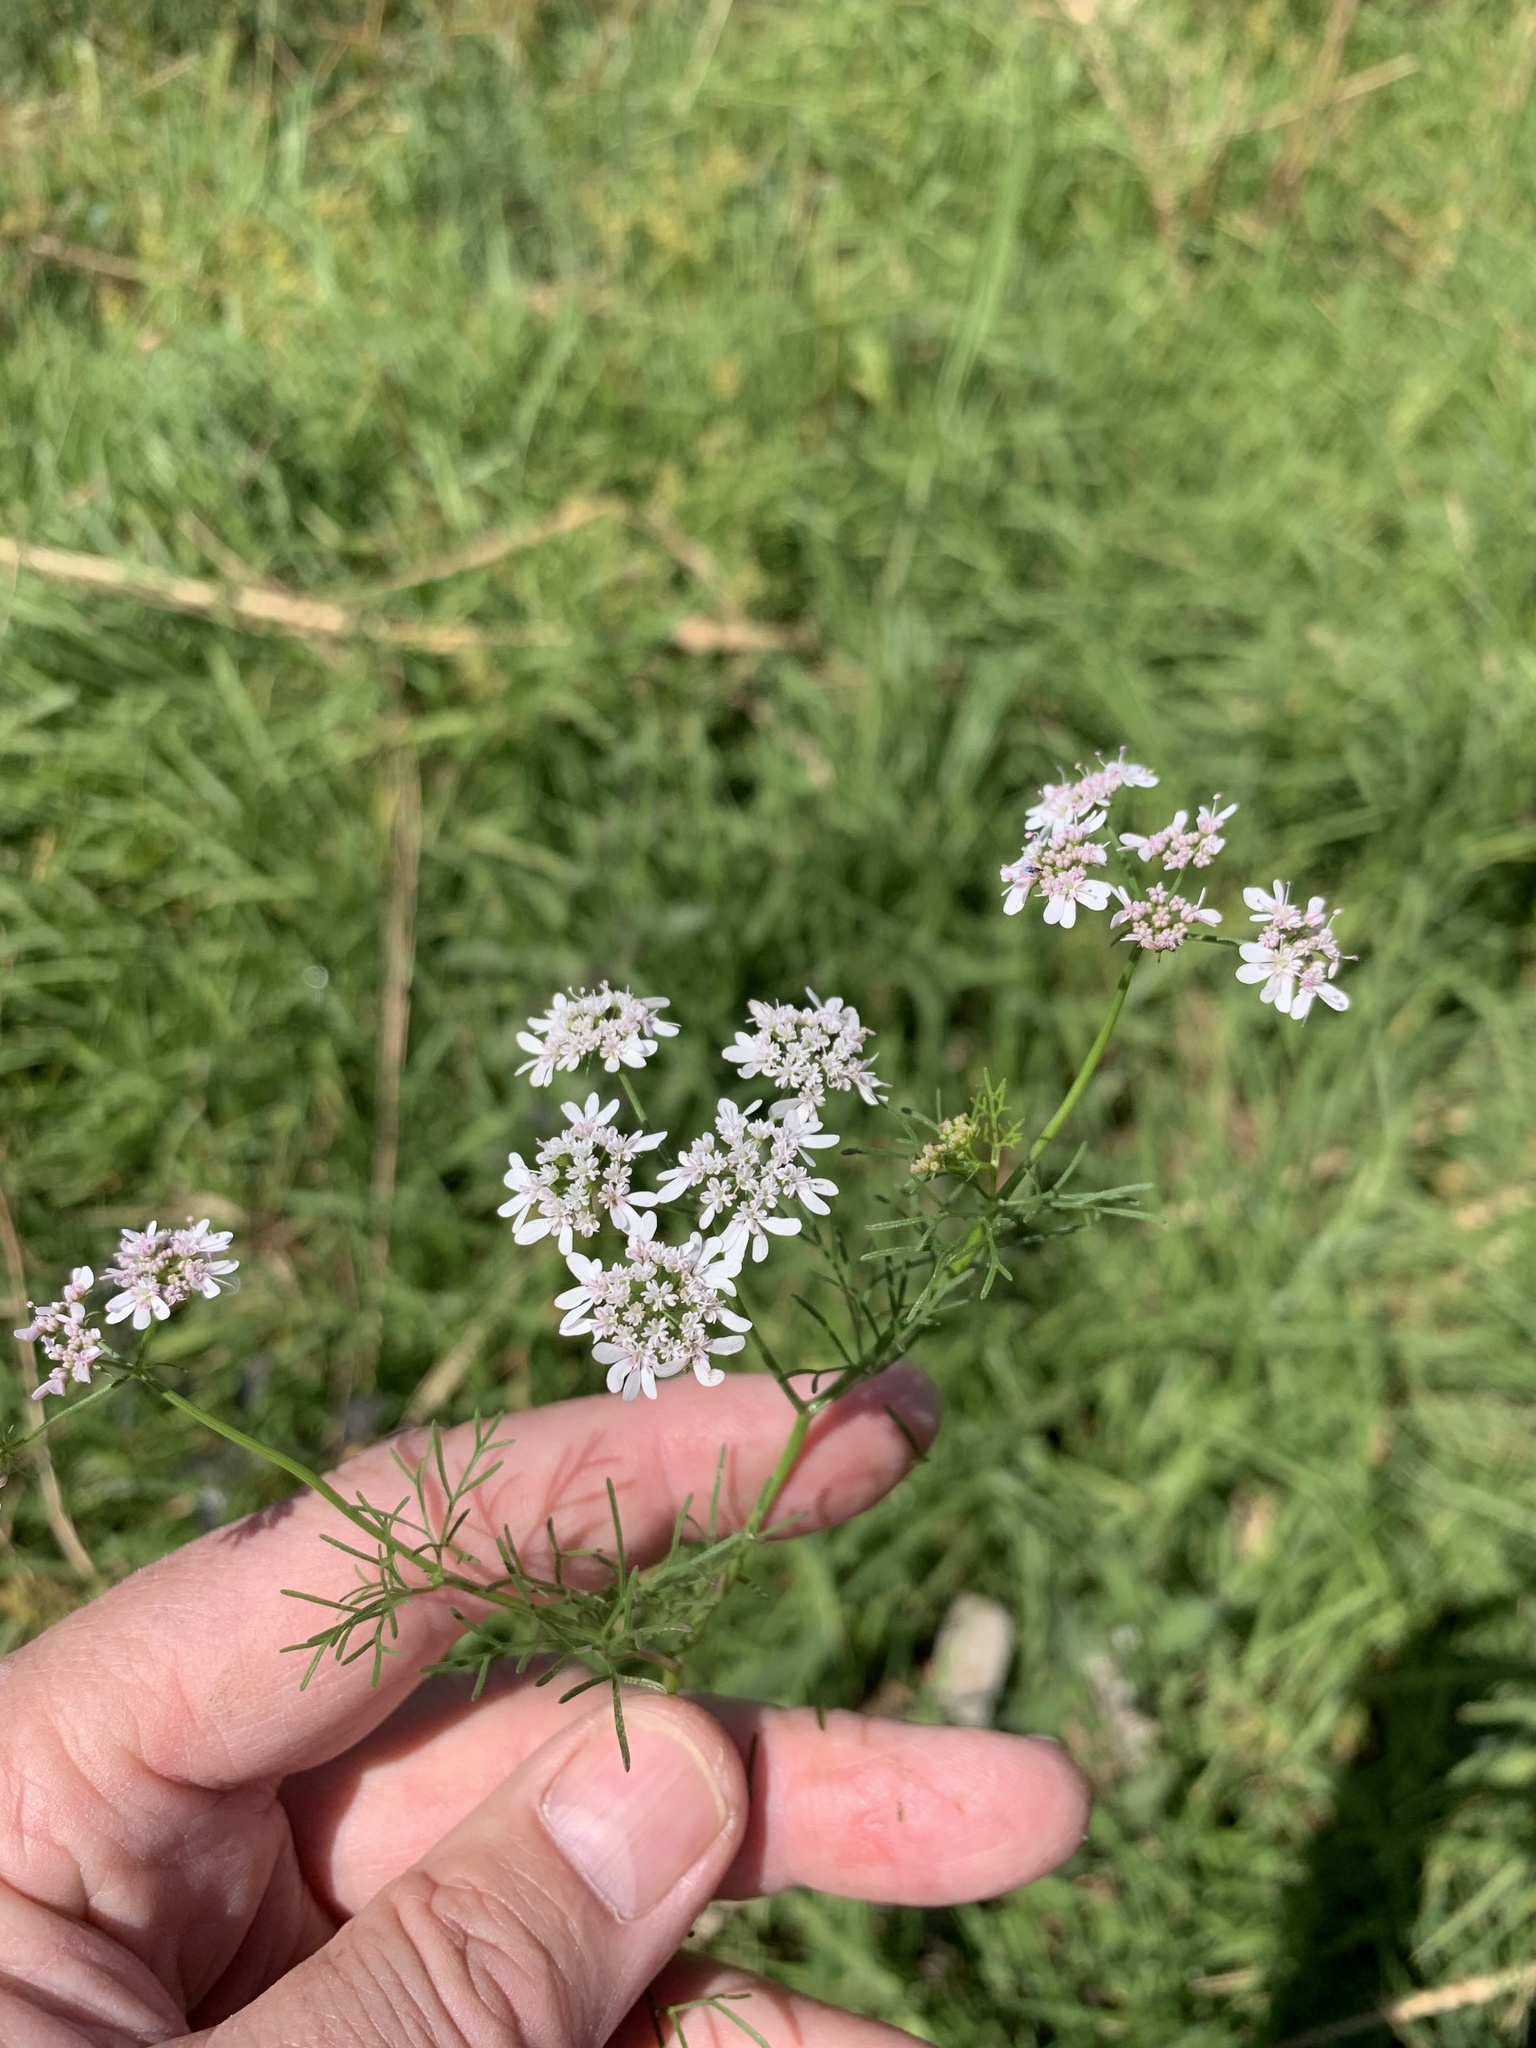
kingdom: Plantae
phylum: Tracheophyta
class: Magnoliopsida
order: Apiales
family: Apiaceae
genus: Coriandrum
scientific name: Coriandrum sativum
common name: Coriander
